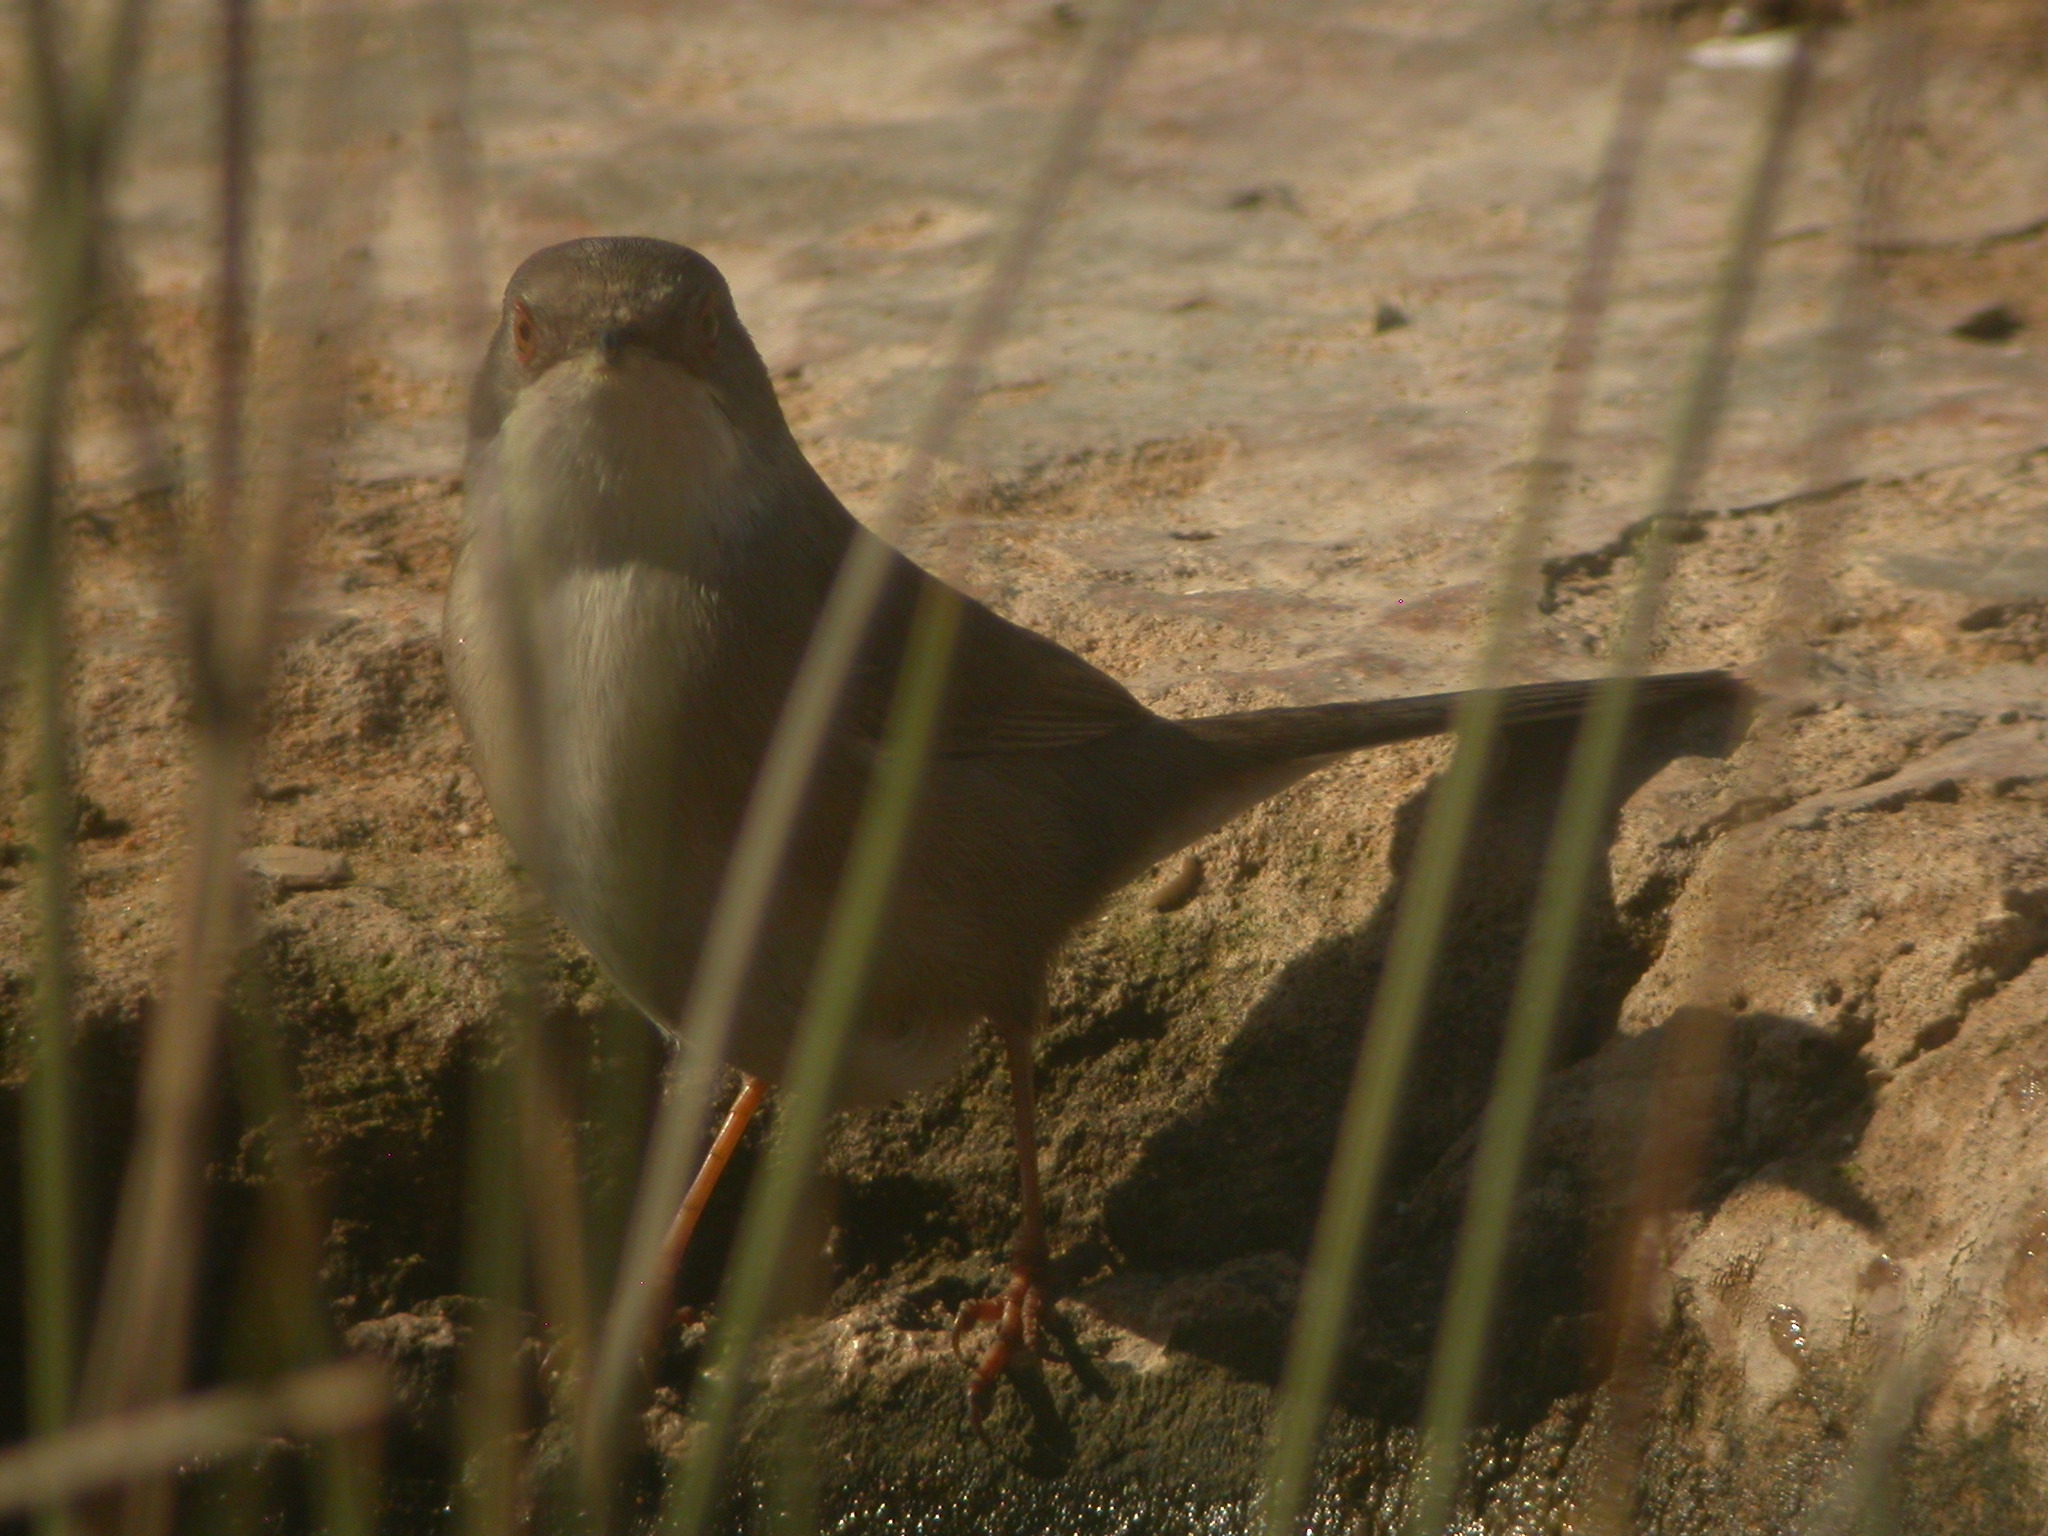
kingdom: Animalia
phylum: Chordata
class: Aves
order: Passeriformes
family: Sylviidae
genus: Curruca
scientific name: Curruca melanocephala
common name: Sardinian warbler
